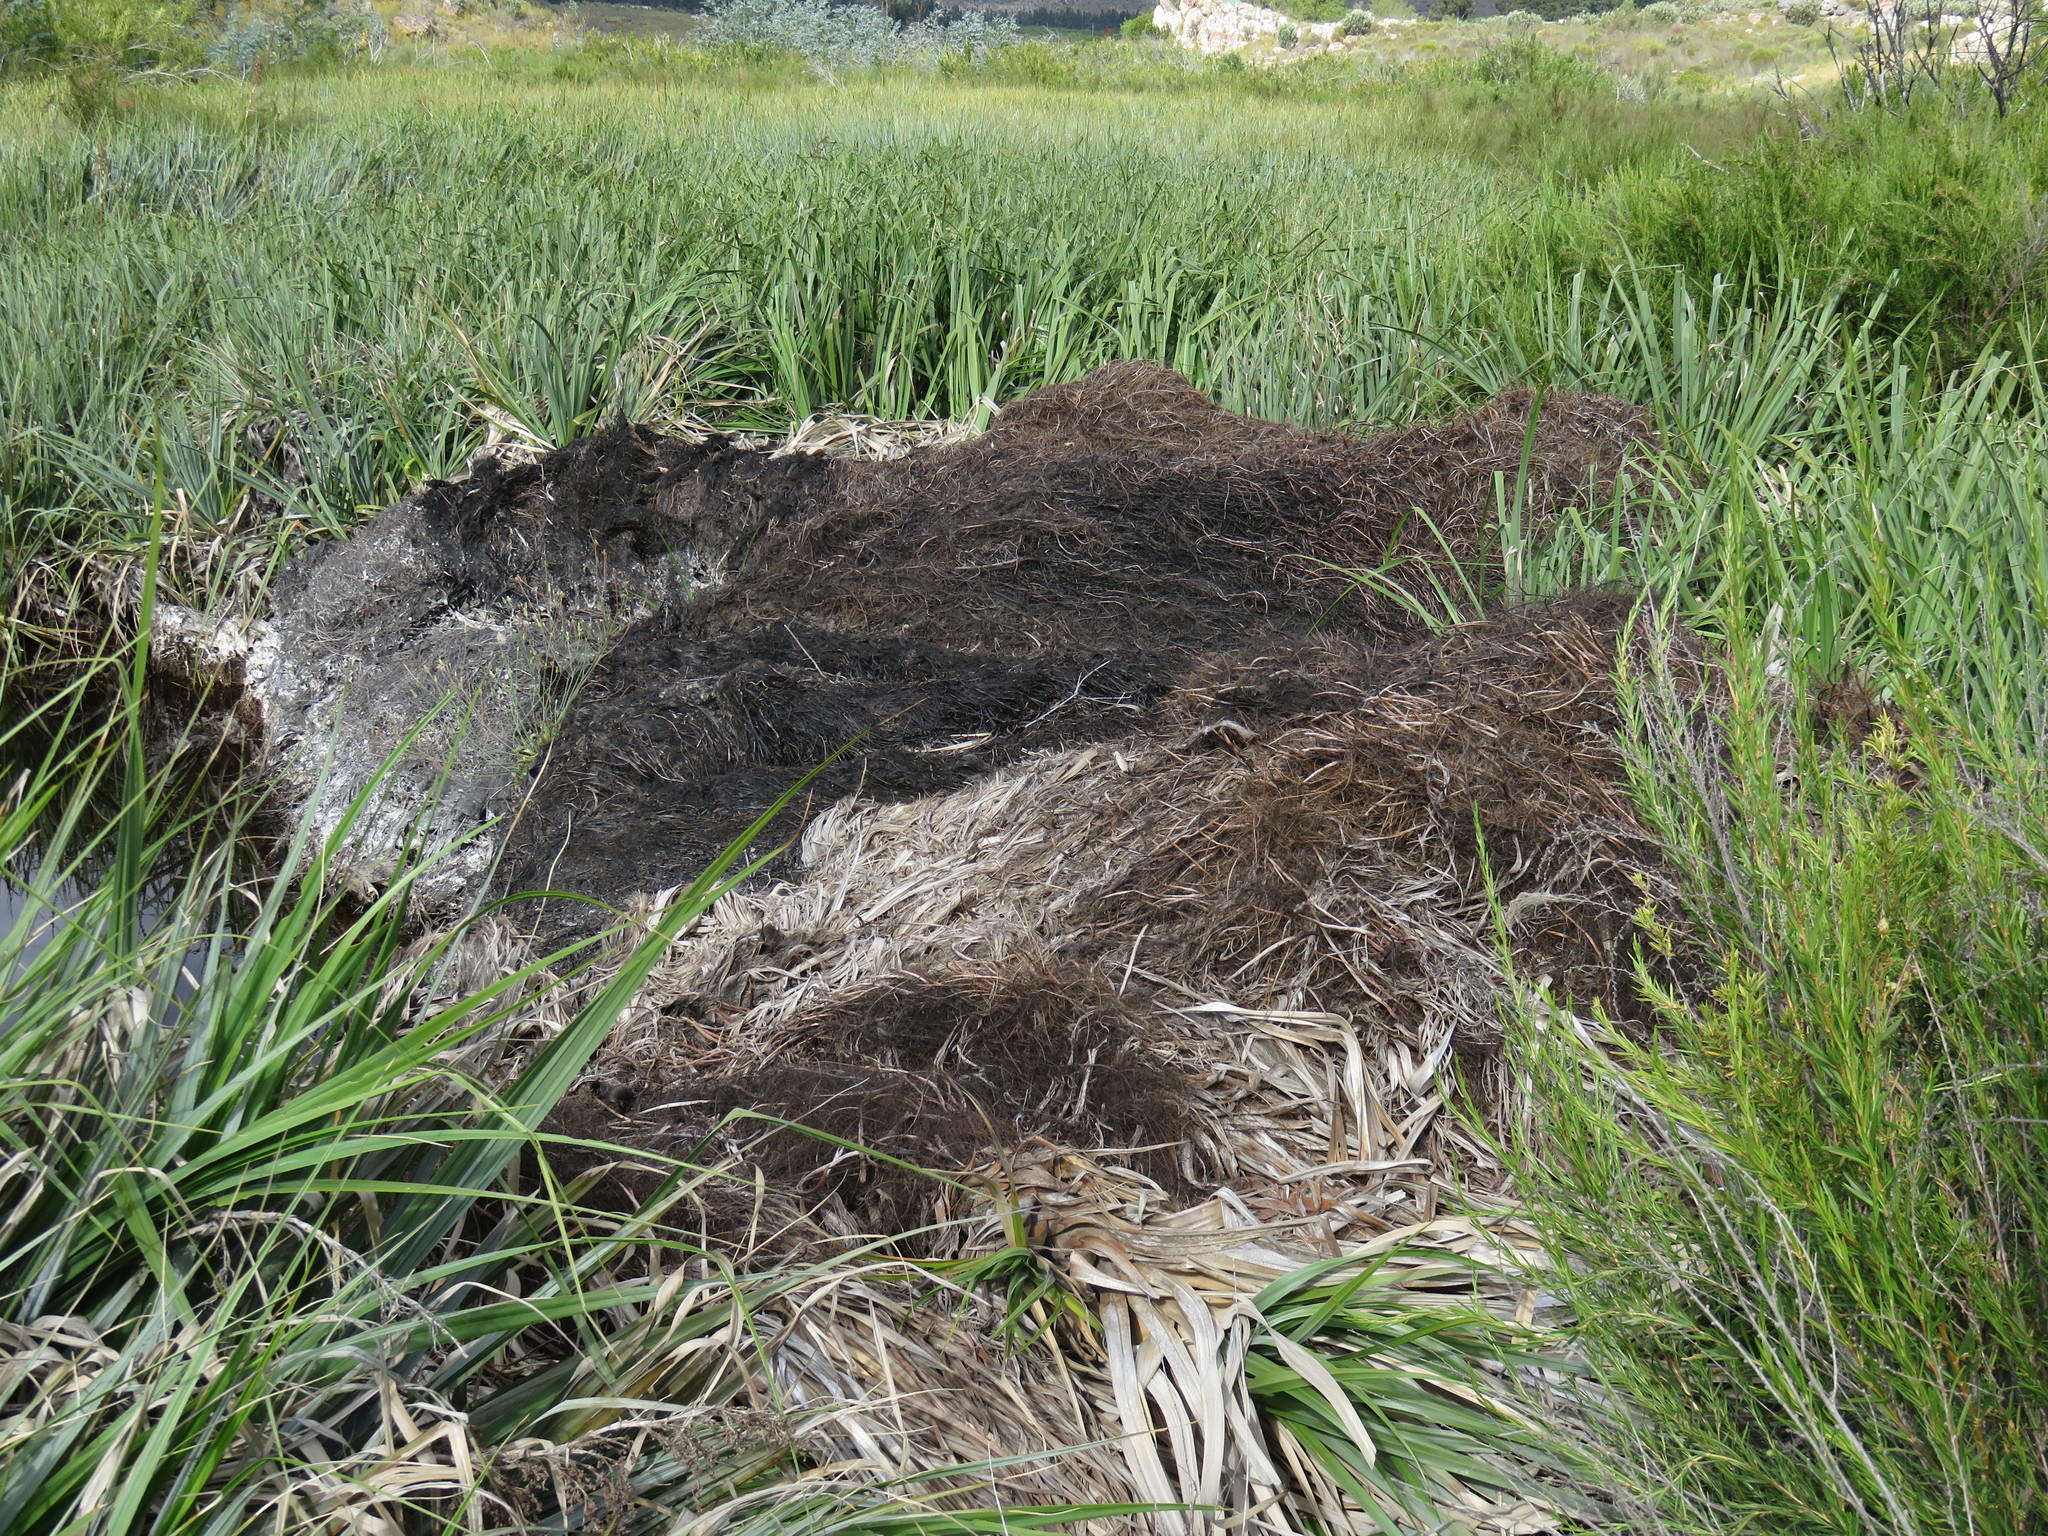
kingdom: Plantae
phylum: Tracheophyta
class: Liliopsida
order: Poales
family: Thurniaceae
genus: Prionium
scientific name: Prionium serratum
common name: Palmiet
